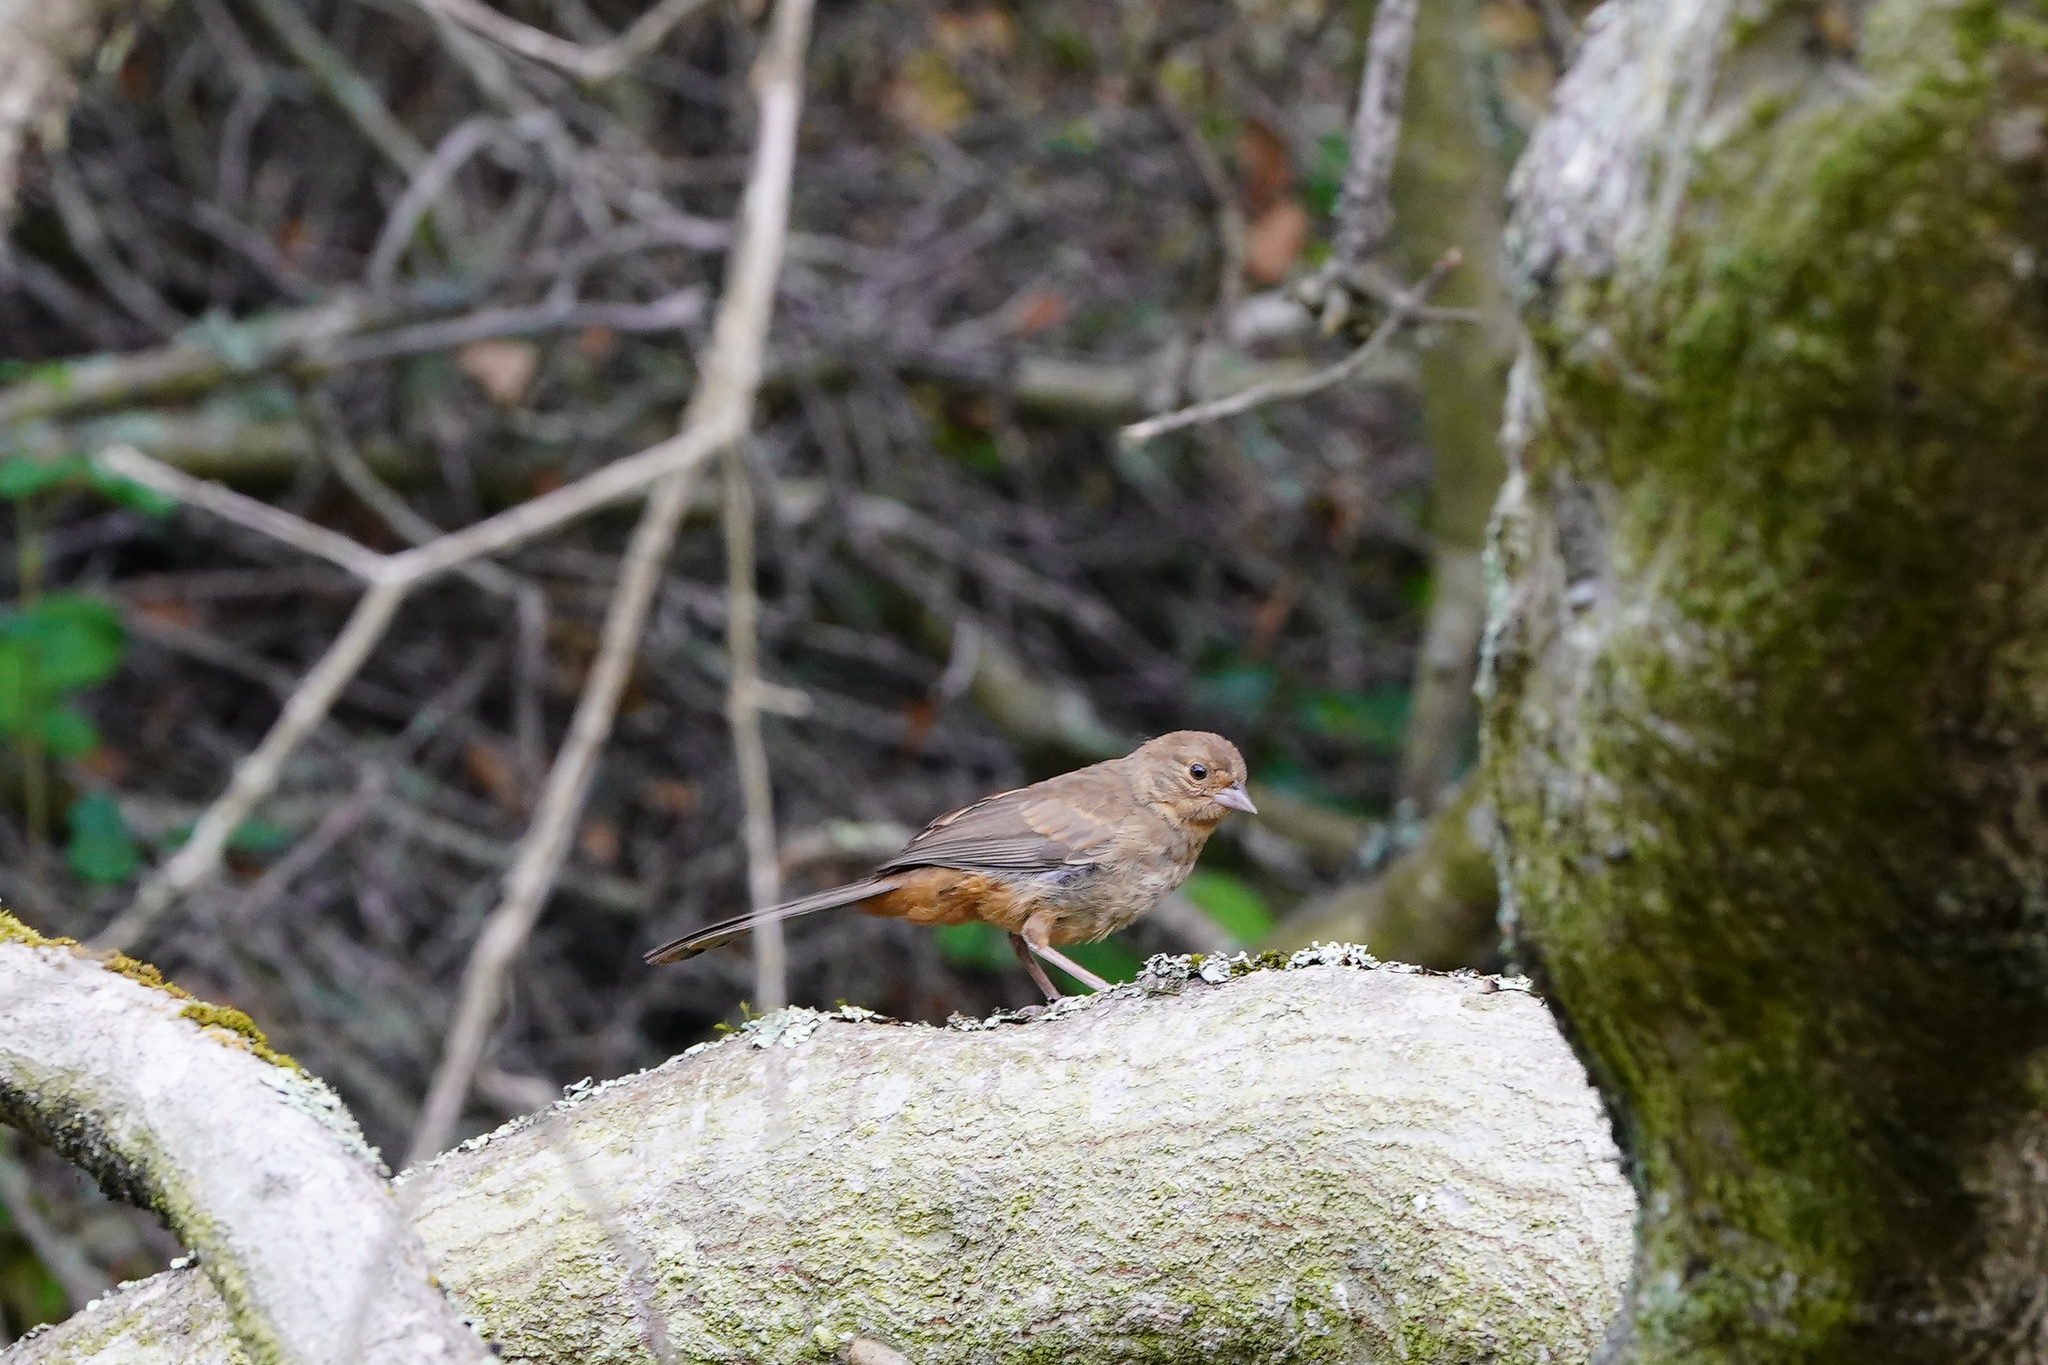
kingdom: Animalia
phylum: Chordata
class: Aves
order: Passeriformes
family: Passerellidae
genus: Melozone
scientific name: Melozone crissalis
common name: California towhee
